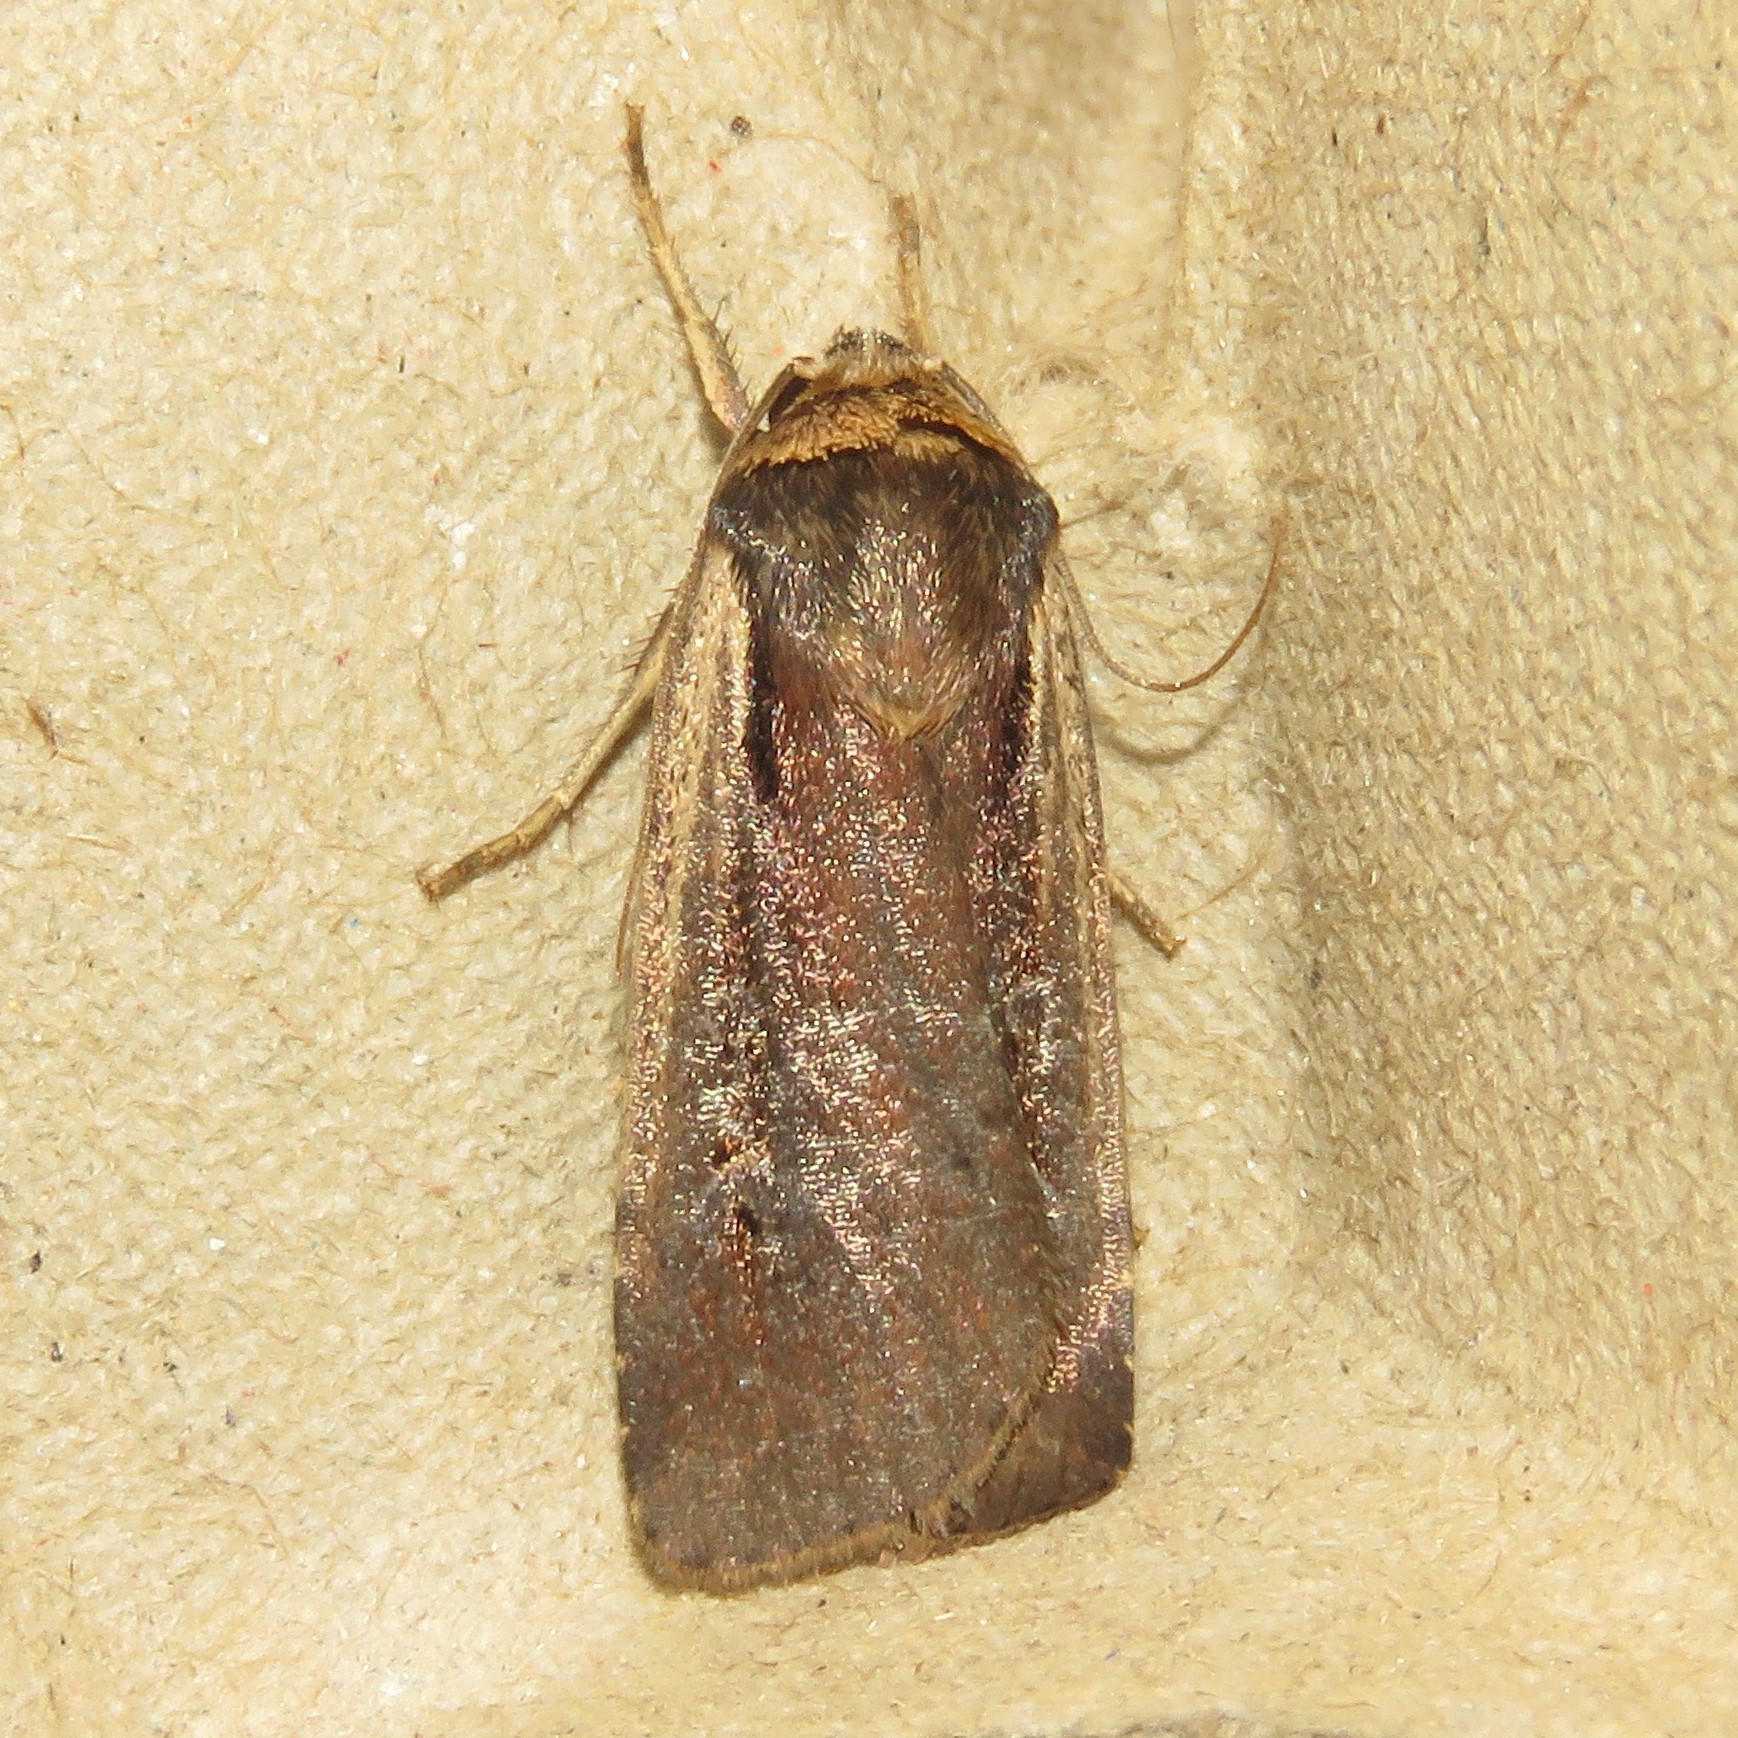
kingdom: Animalia
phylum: Arthropoda
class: Insecta
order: Lepidoptera
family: Noctuidae
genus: Ochropleura
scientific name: Ochropleura implecta
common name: Flame-shouldered dart
